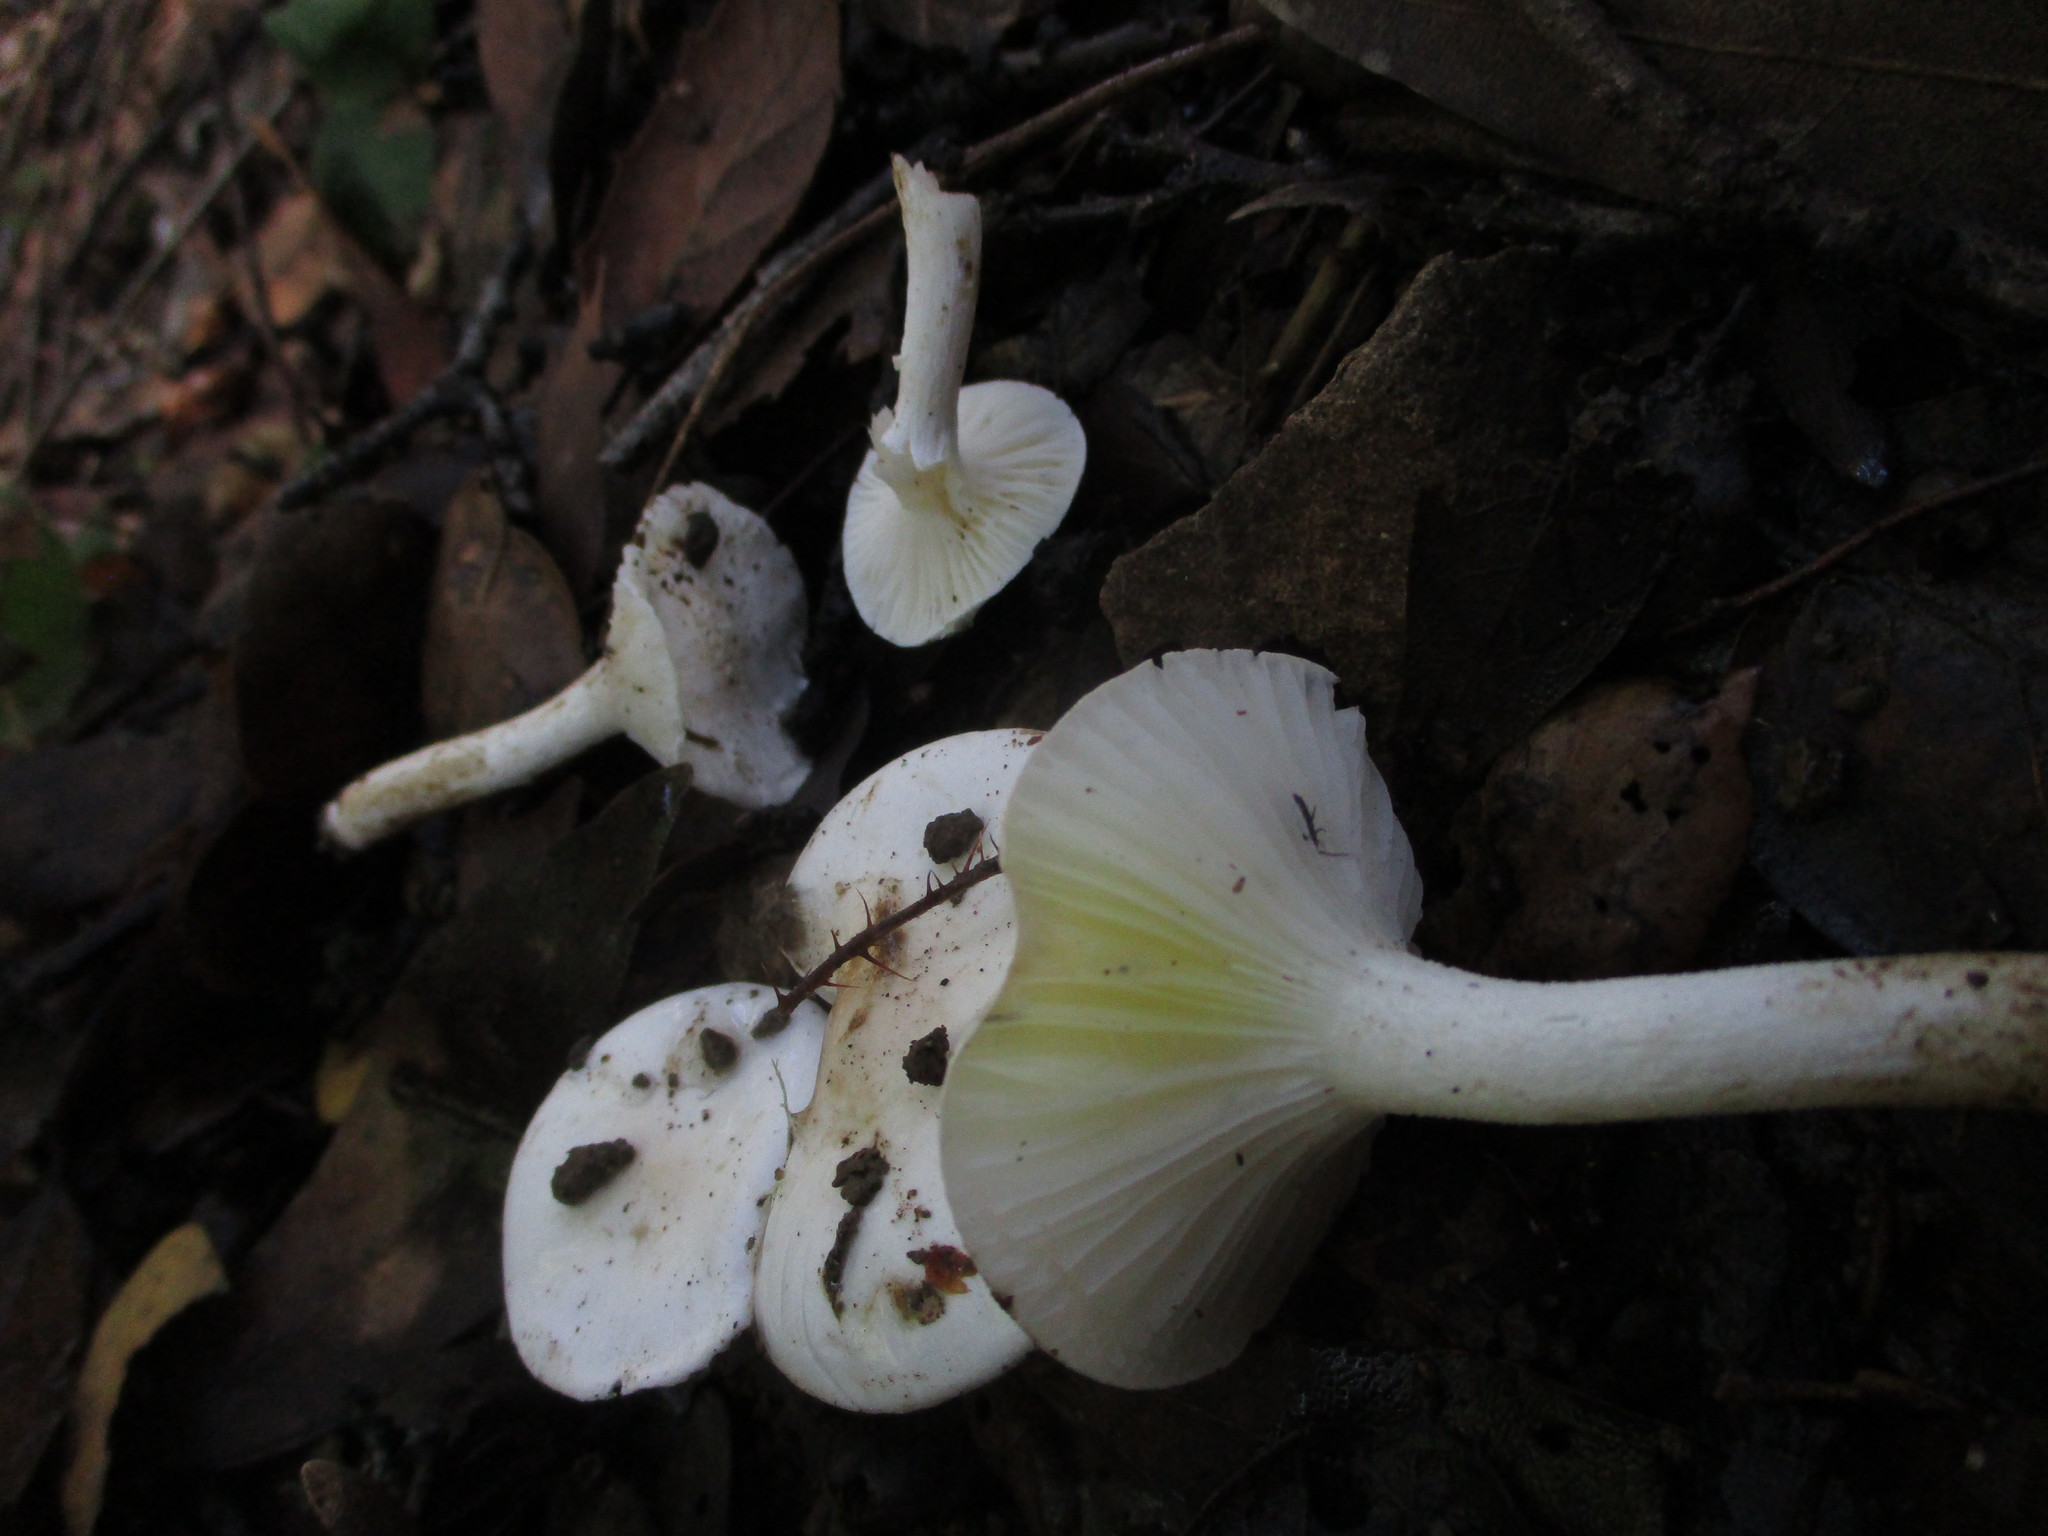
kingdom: Fungi
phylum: Basidiomycota
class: Agaricomycetes
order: Agaricales
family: Hygrophoraceae
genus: Hygrophorus
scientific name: Hygrophorus eburneus
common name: Ivory wax-cap
